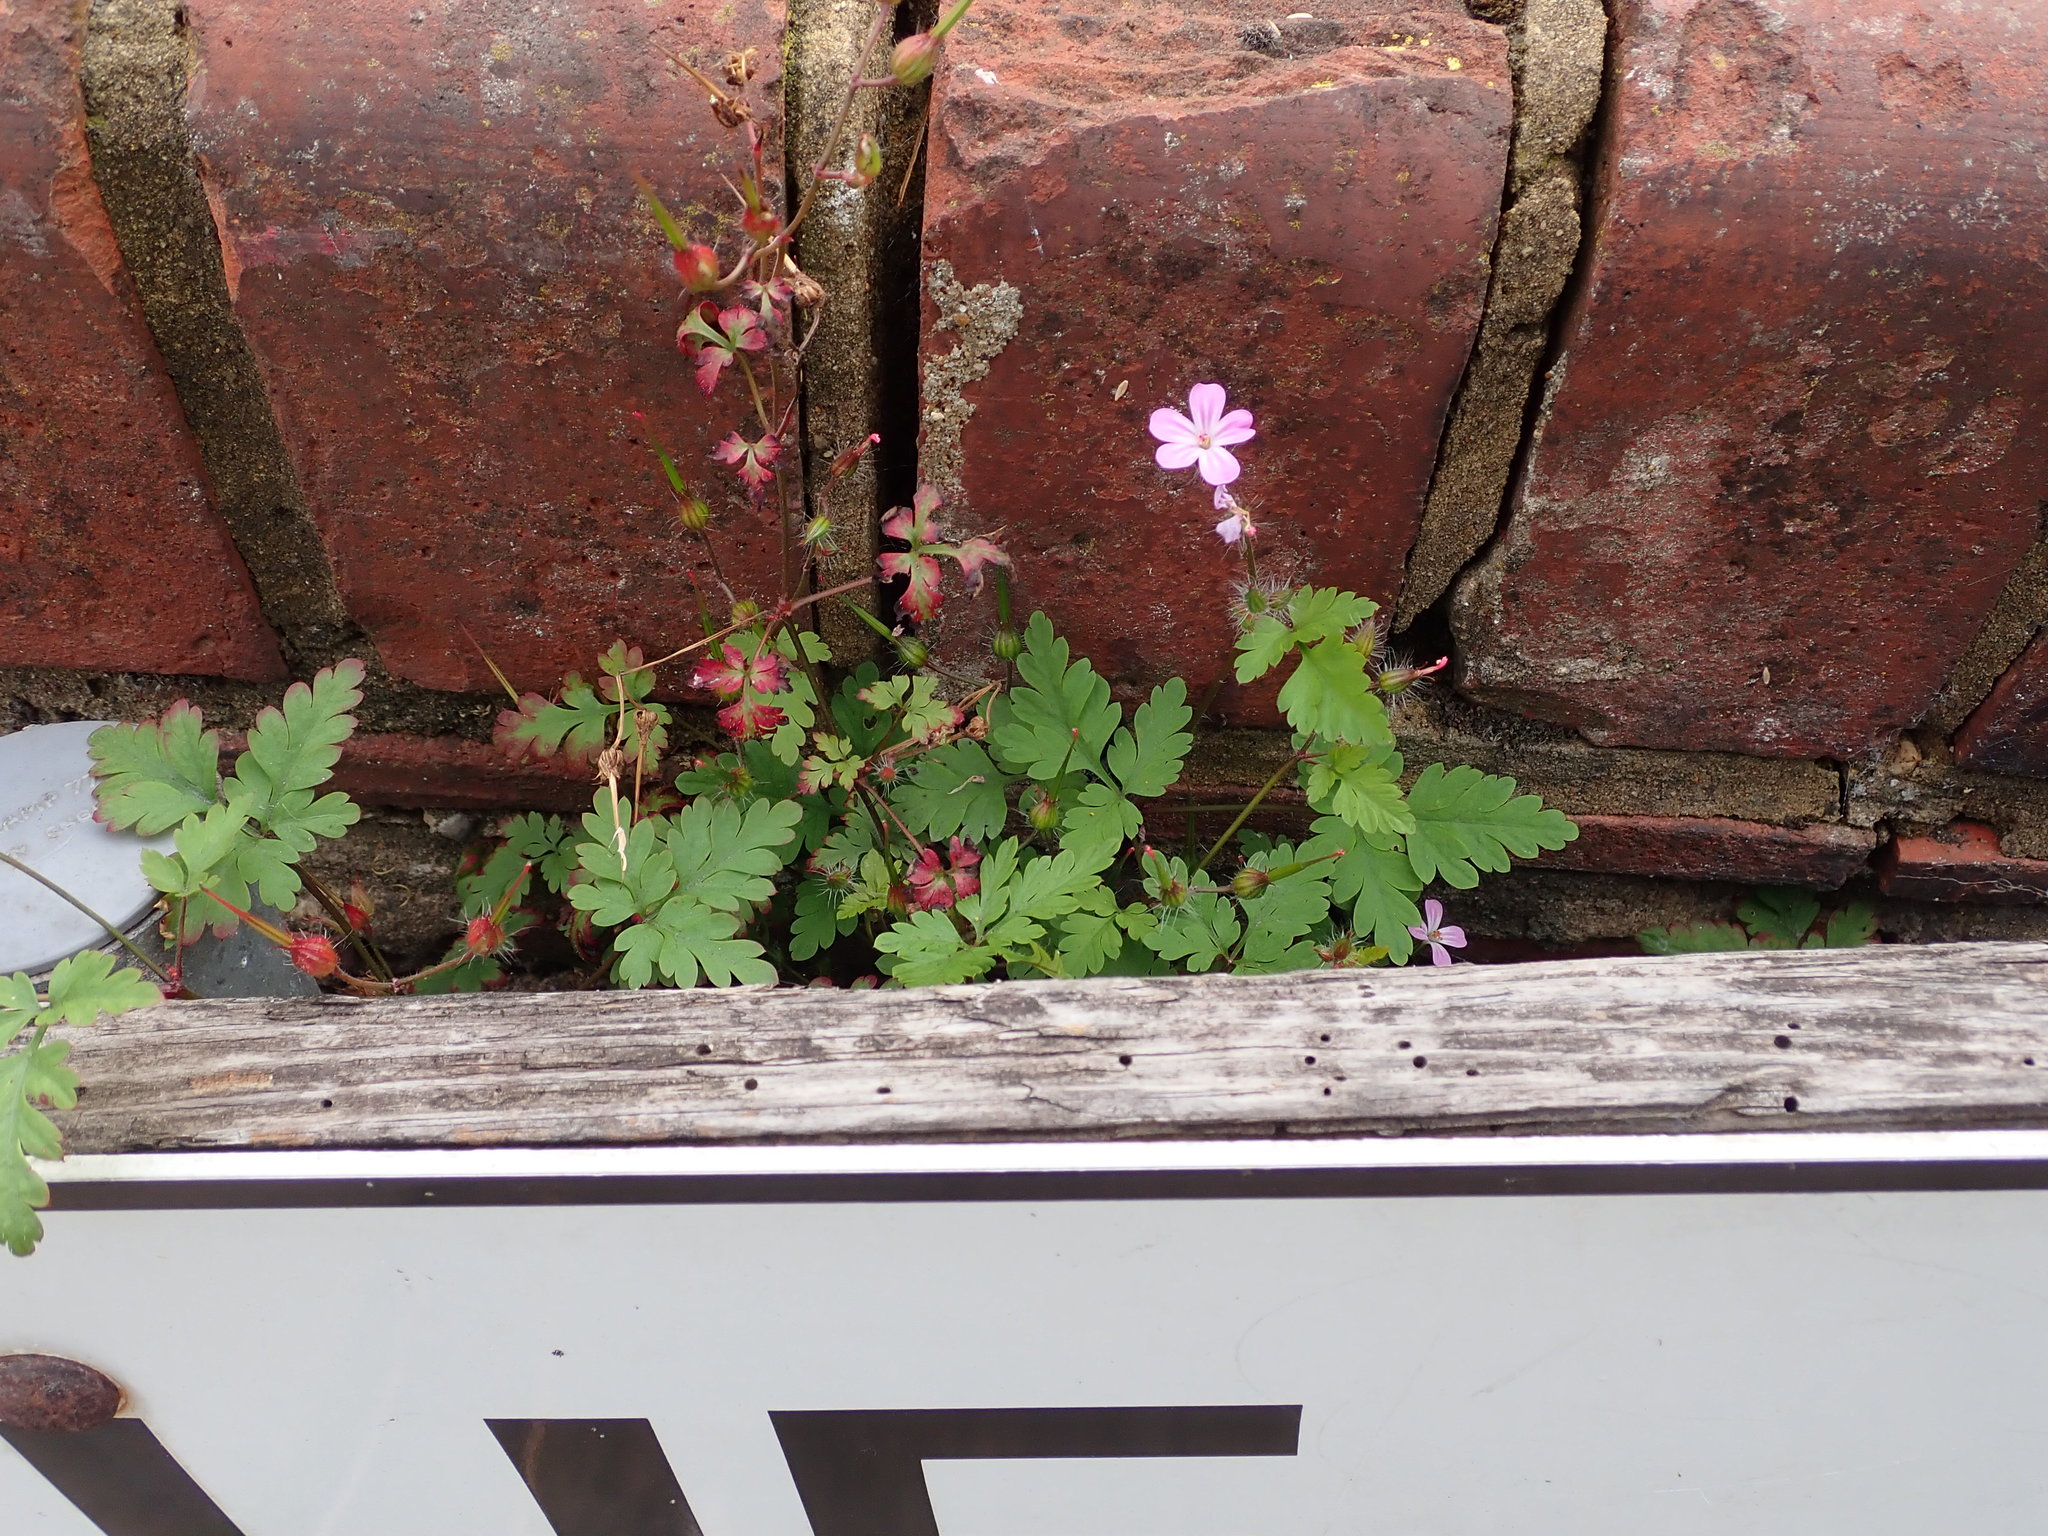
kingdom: Plantae
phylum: Tracheophyta
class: Magnoliopsida
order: Geraniales
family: Geraniaceae
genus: Geranium
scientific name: Geranium robertianum
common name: Herb-robert
